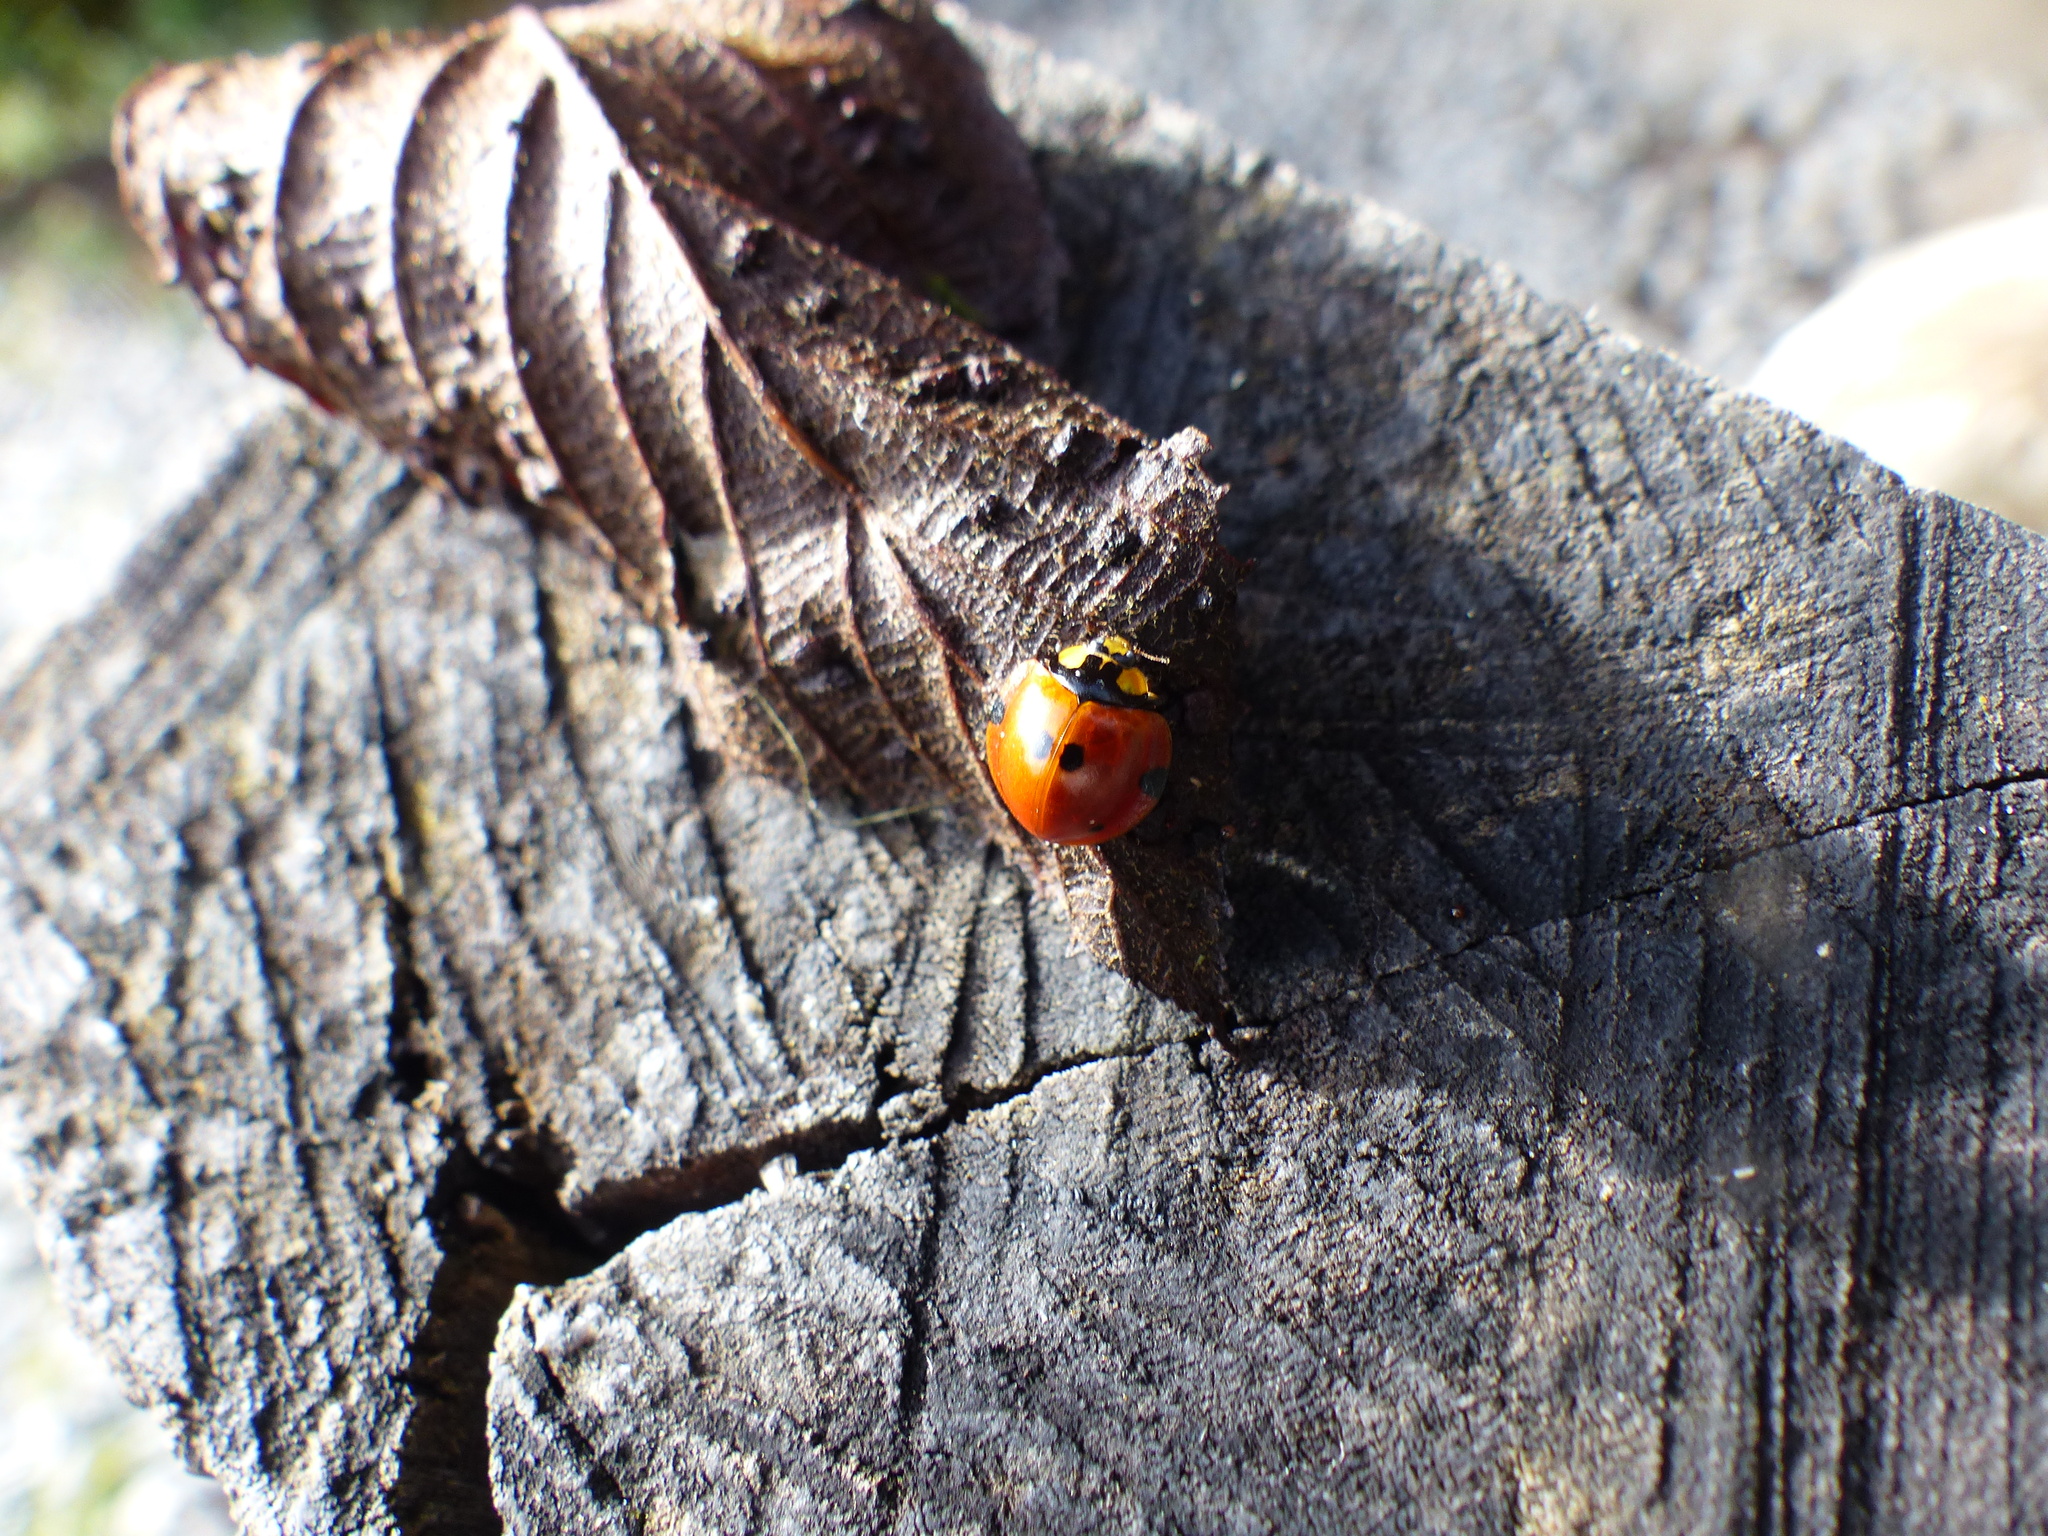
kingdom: Animalia
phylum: Arthropoda
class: Insecta
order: Coleoptera
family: Coccinellidae
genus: Neda
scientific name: Neda norrisi
